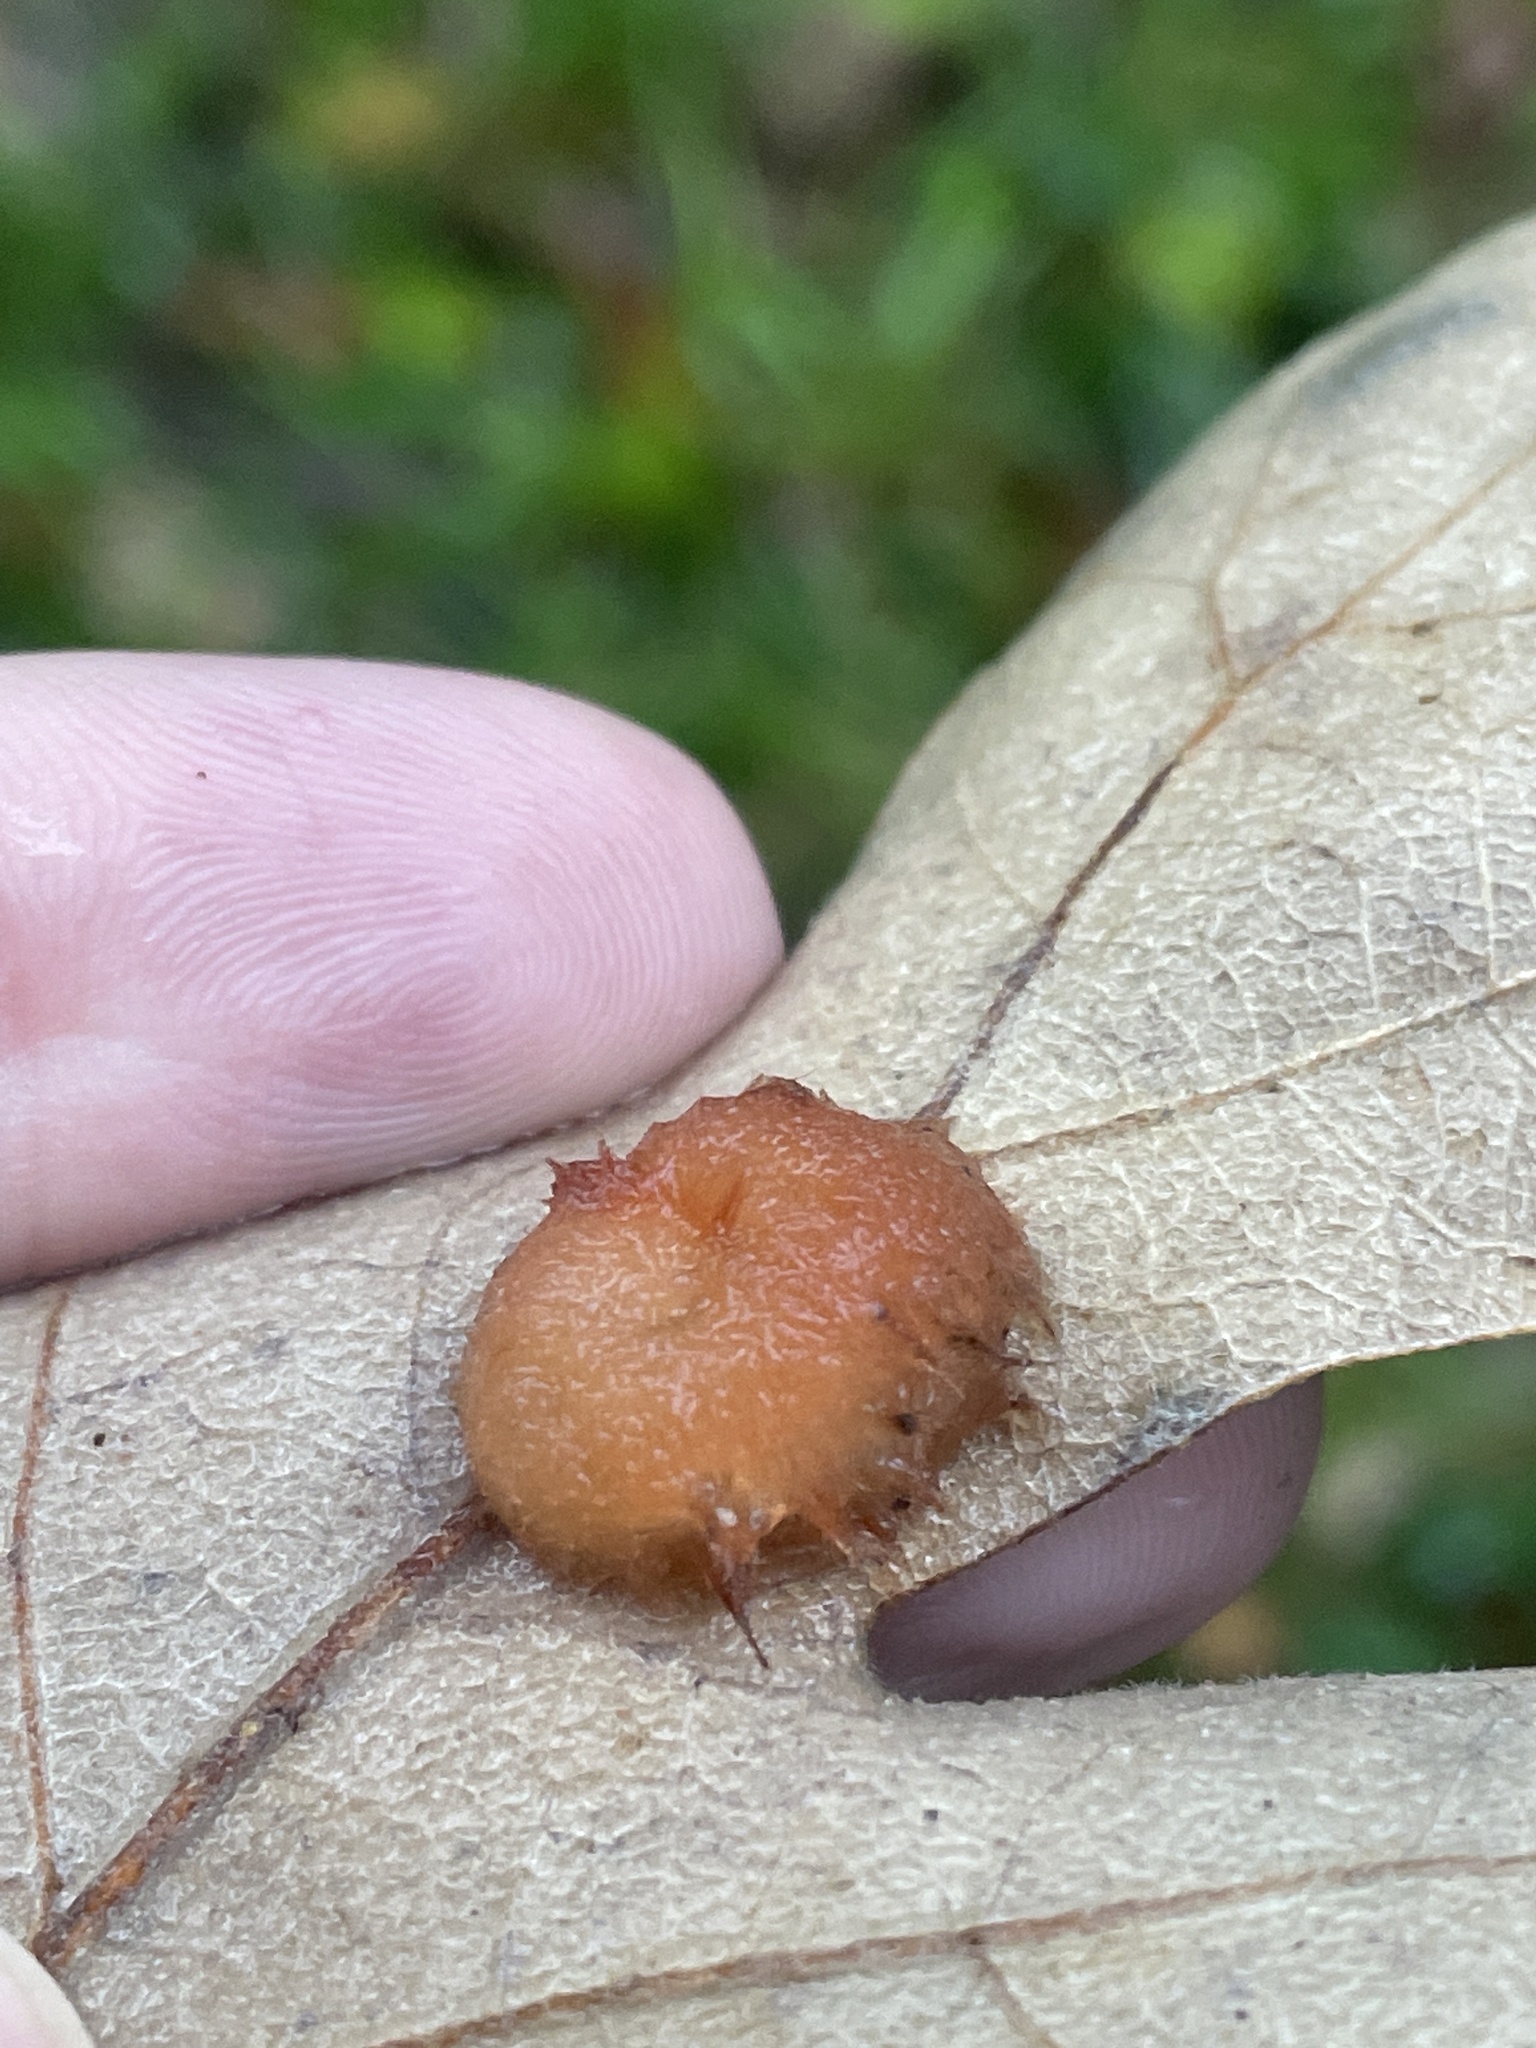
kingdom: Animalia
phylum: Arthropoda
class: Insecta
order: Hymenoptera
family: Cynipidae
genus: Andricus
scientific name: Andricus Druon pattoni
